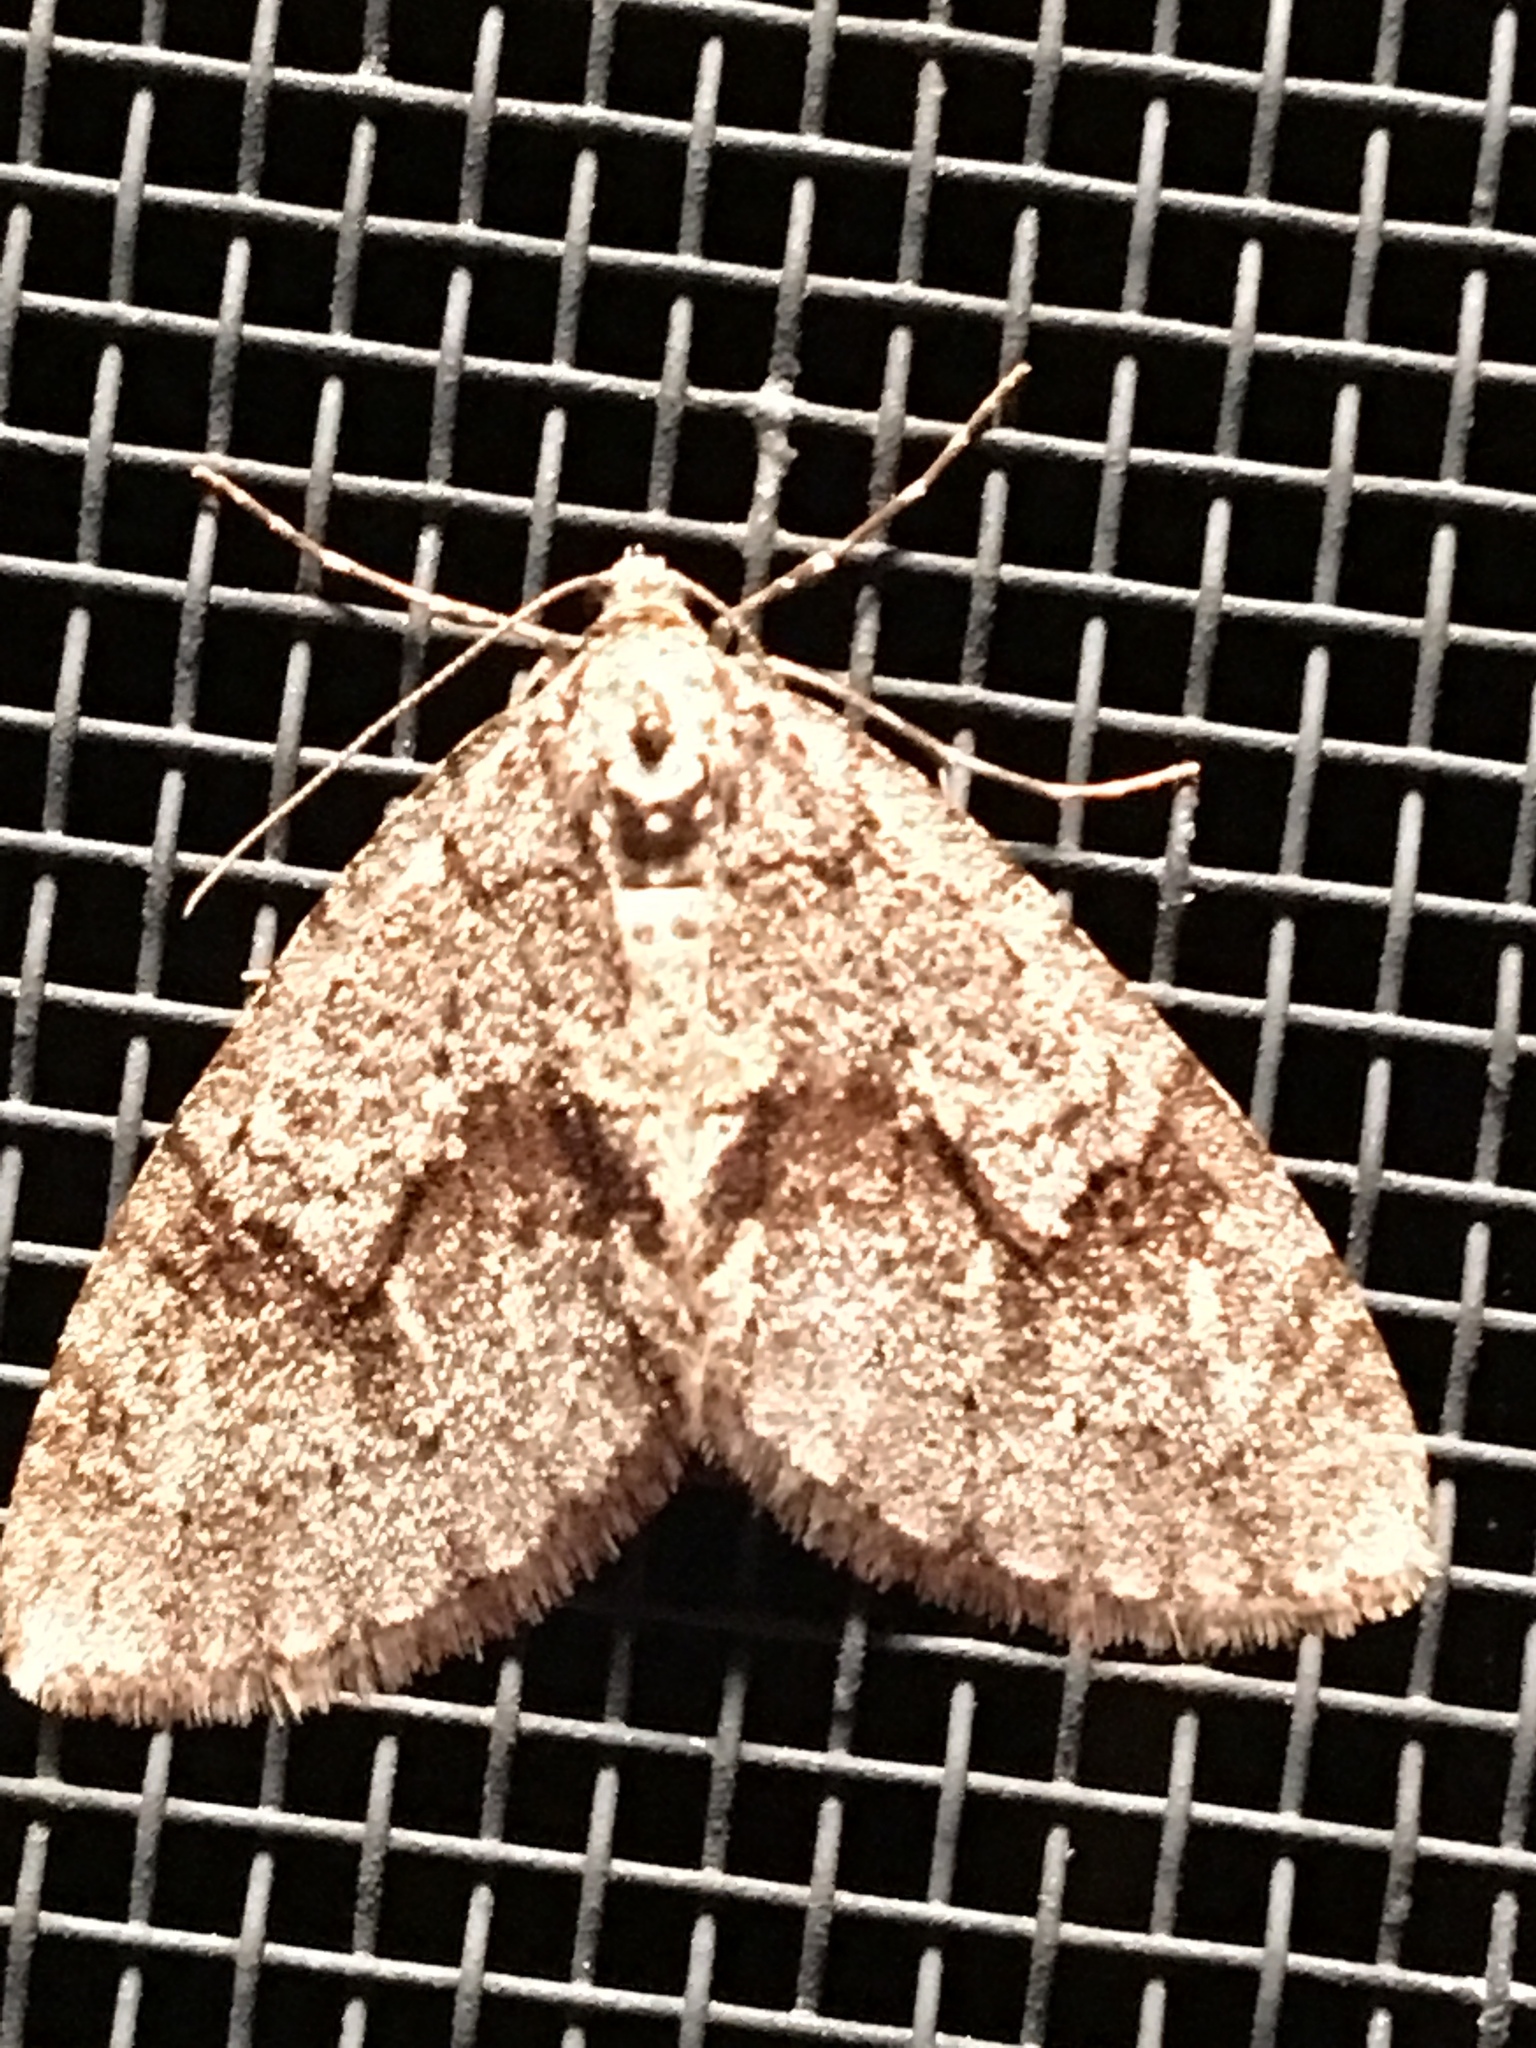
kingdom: Animalia
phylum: Arthropoda
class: Insecta
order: Lepidoptera
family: Geometridae
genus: Cladara
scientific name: Cladara limitaria
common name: Mottled gray carpet
